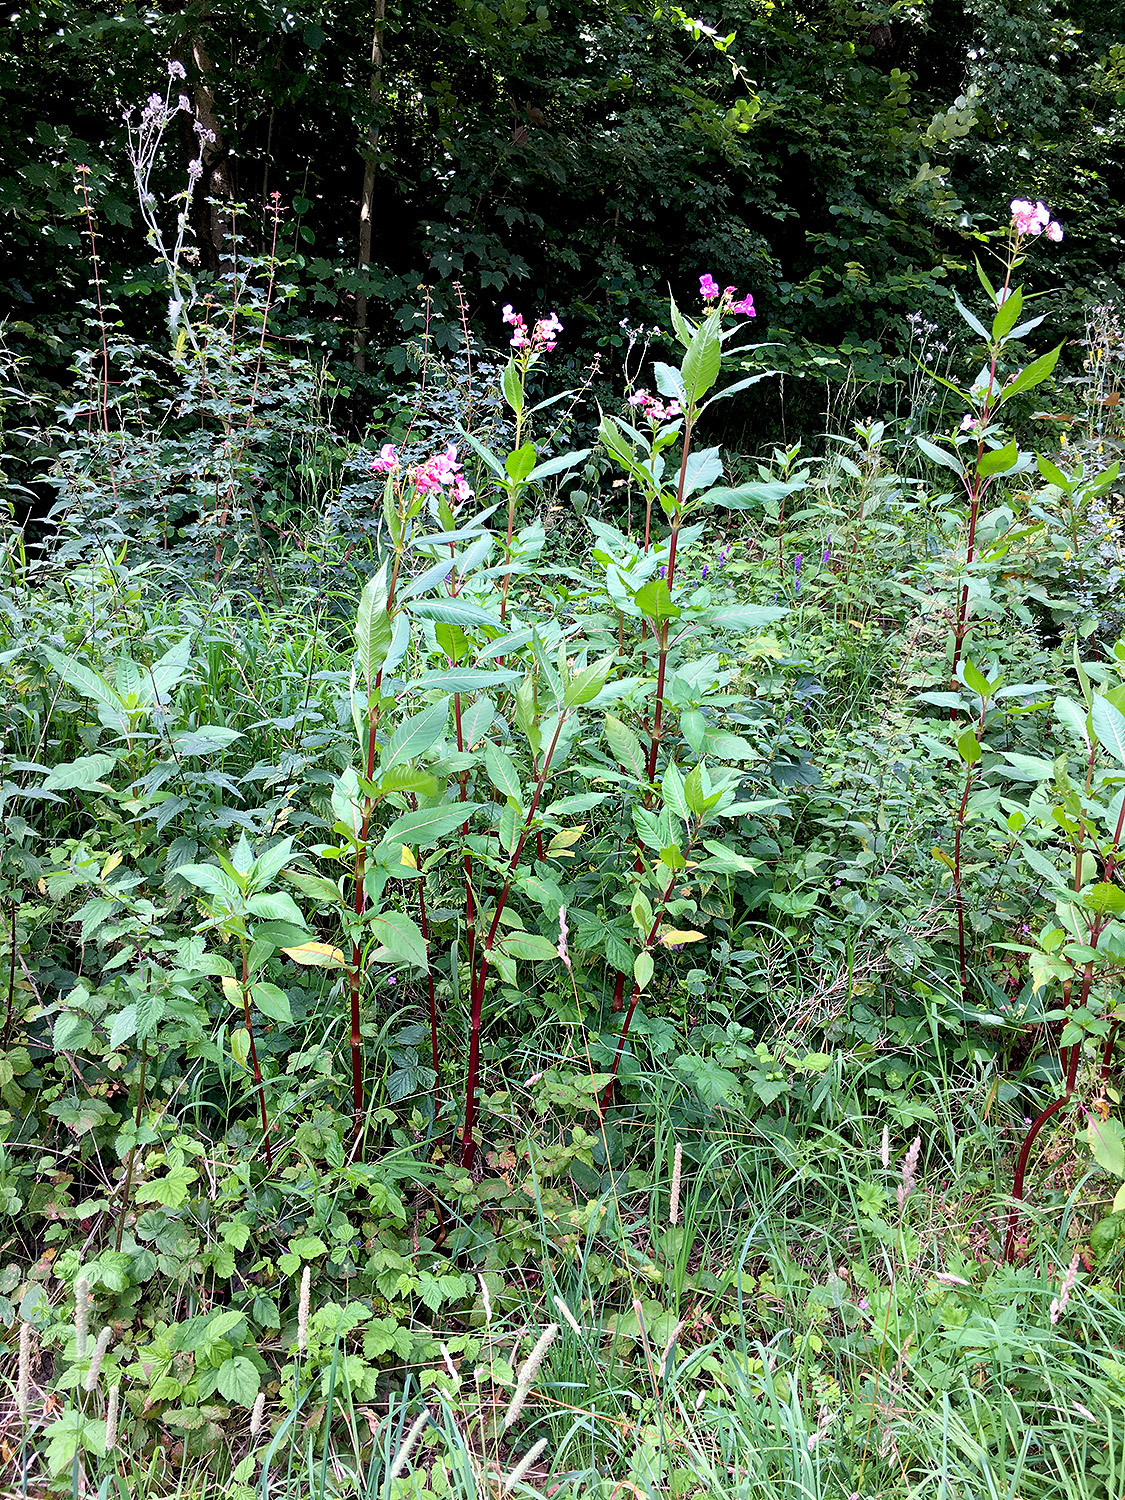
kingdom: Plantae
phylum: Tracheophyta
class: Magnoliopsida
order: Ericales
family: Balsaminaceae
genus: Impatiens
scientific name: Impatiens glandulifera
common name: Himalayan balsam
